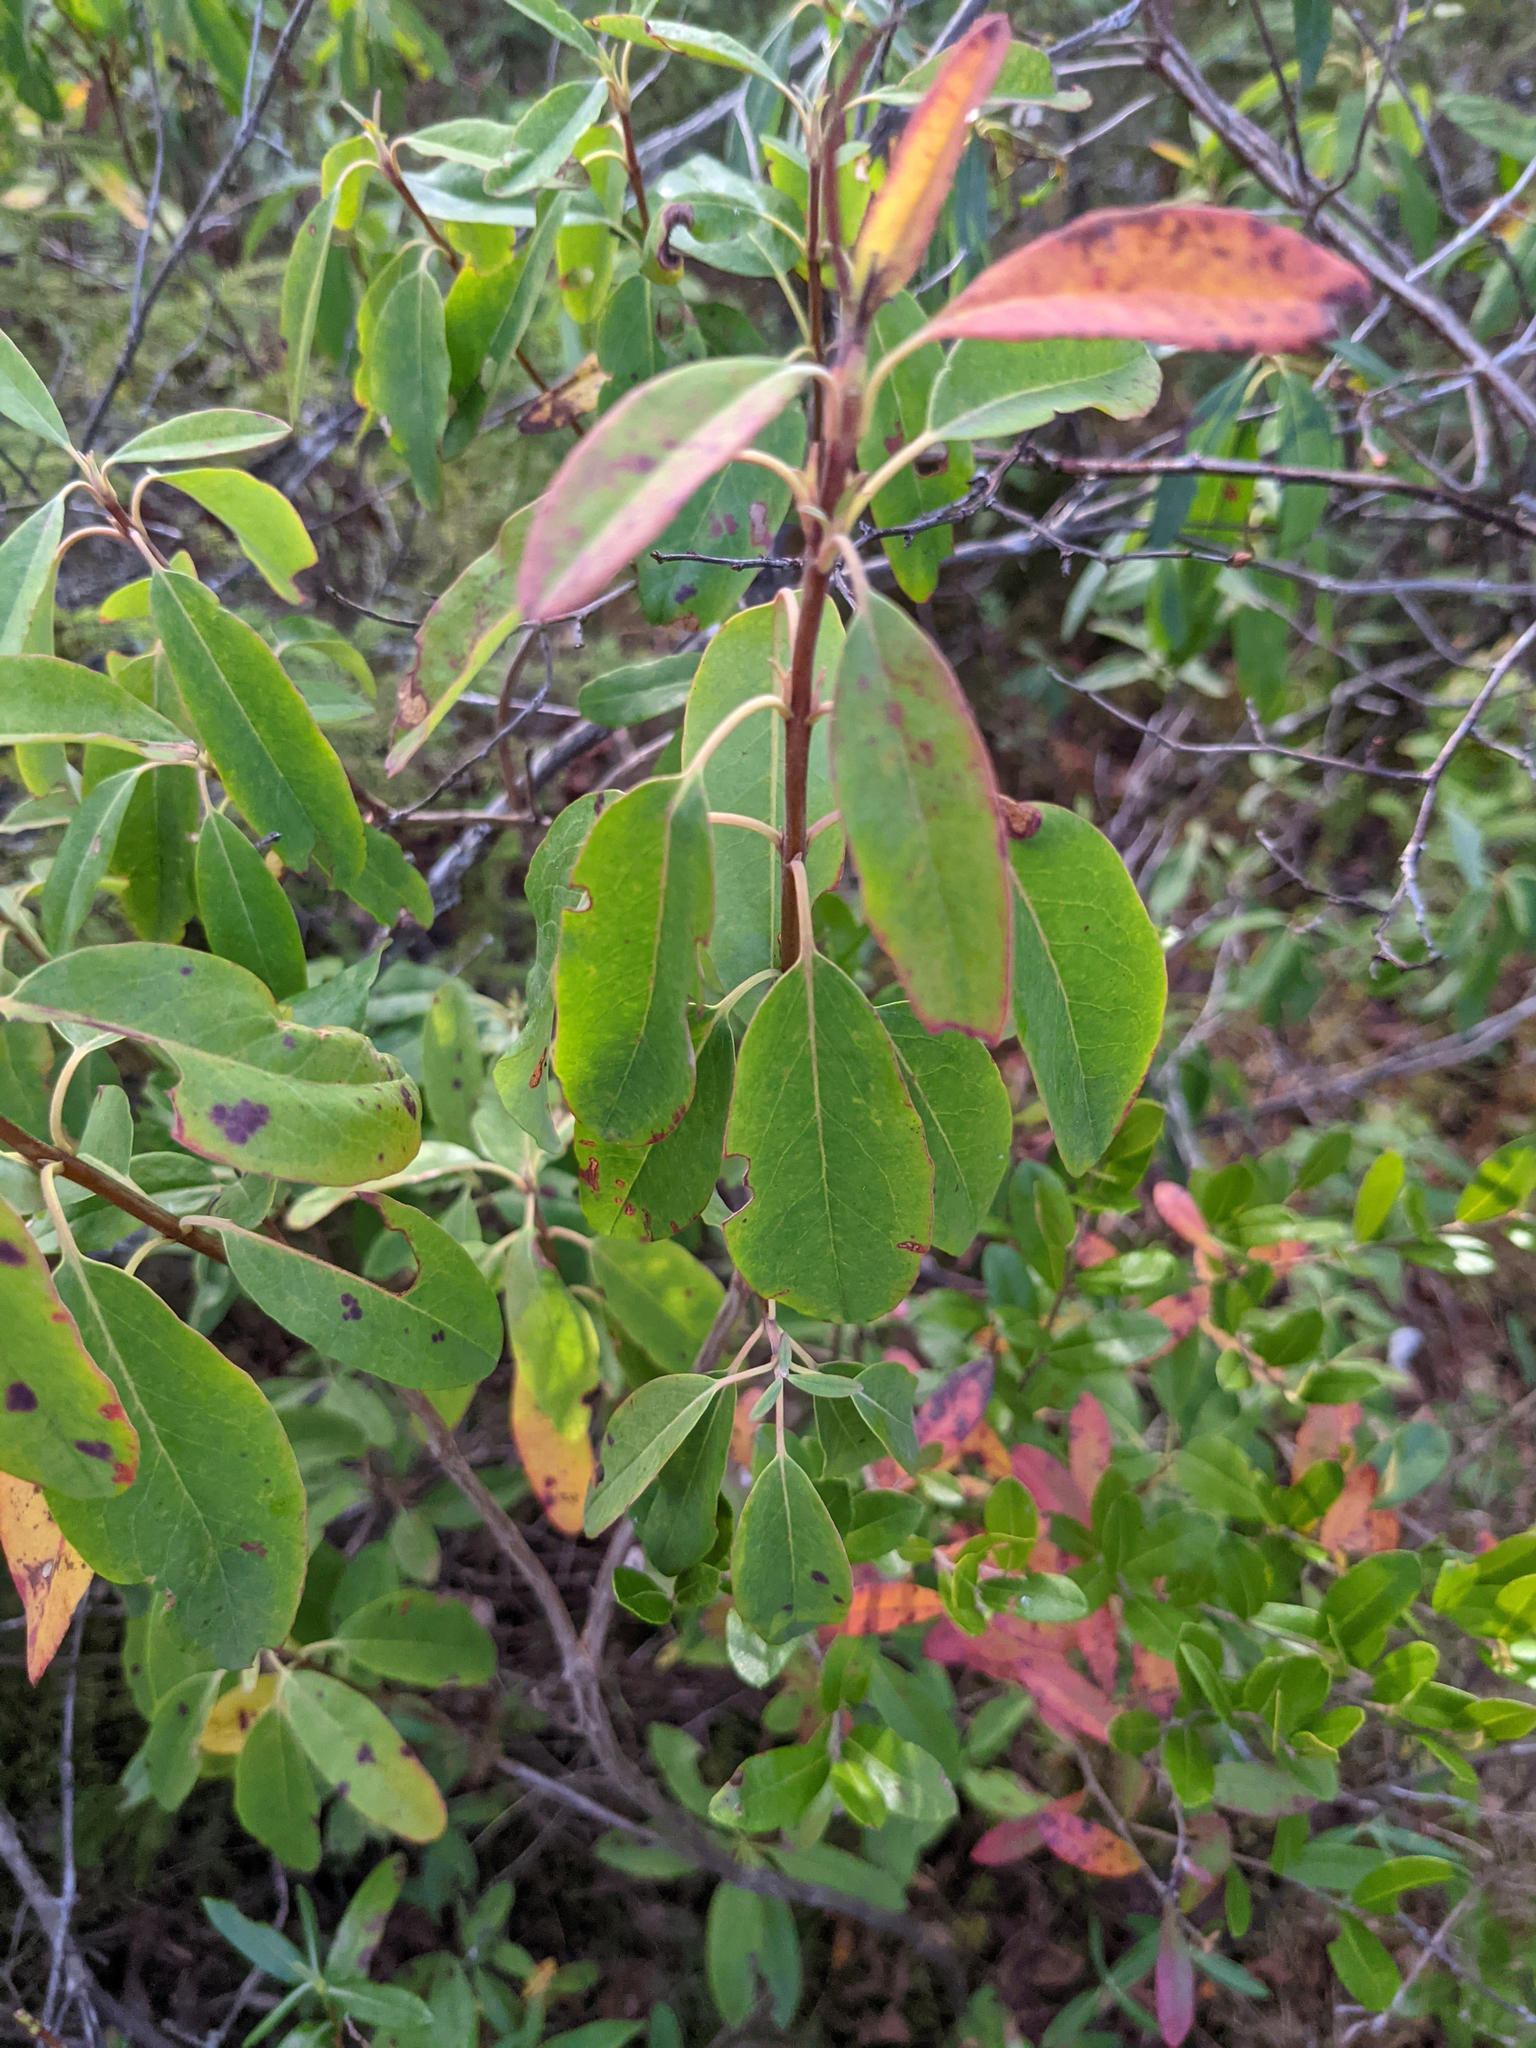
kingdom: Plantae
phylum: Tracheophyta
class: Magnoliopsida
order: Ericales
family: Ericaceae
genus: Kalmia
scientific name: Kalmia angustifolia
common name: Sheep-laurel
